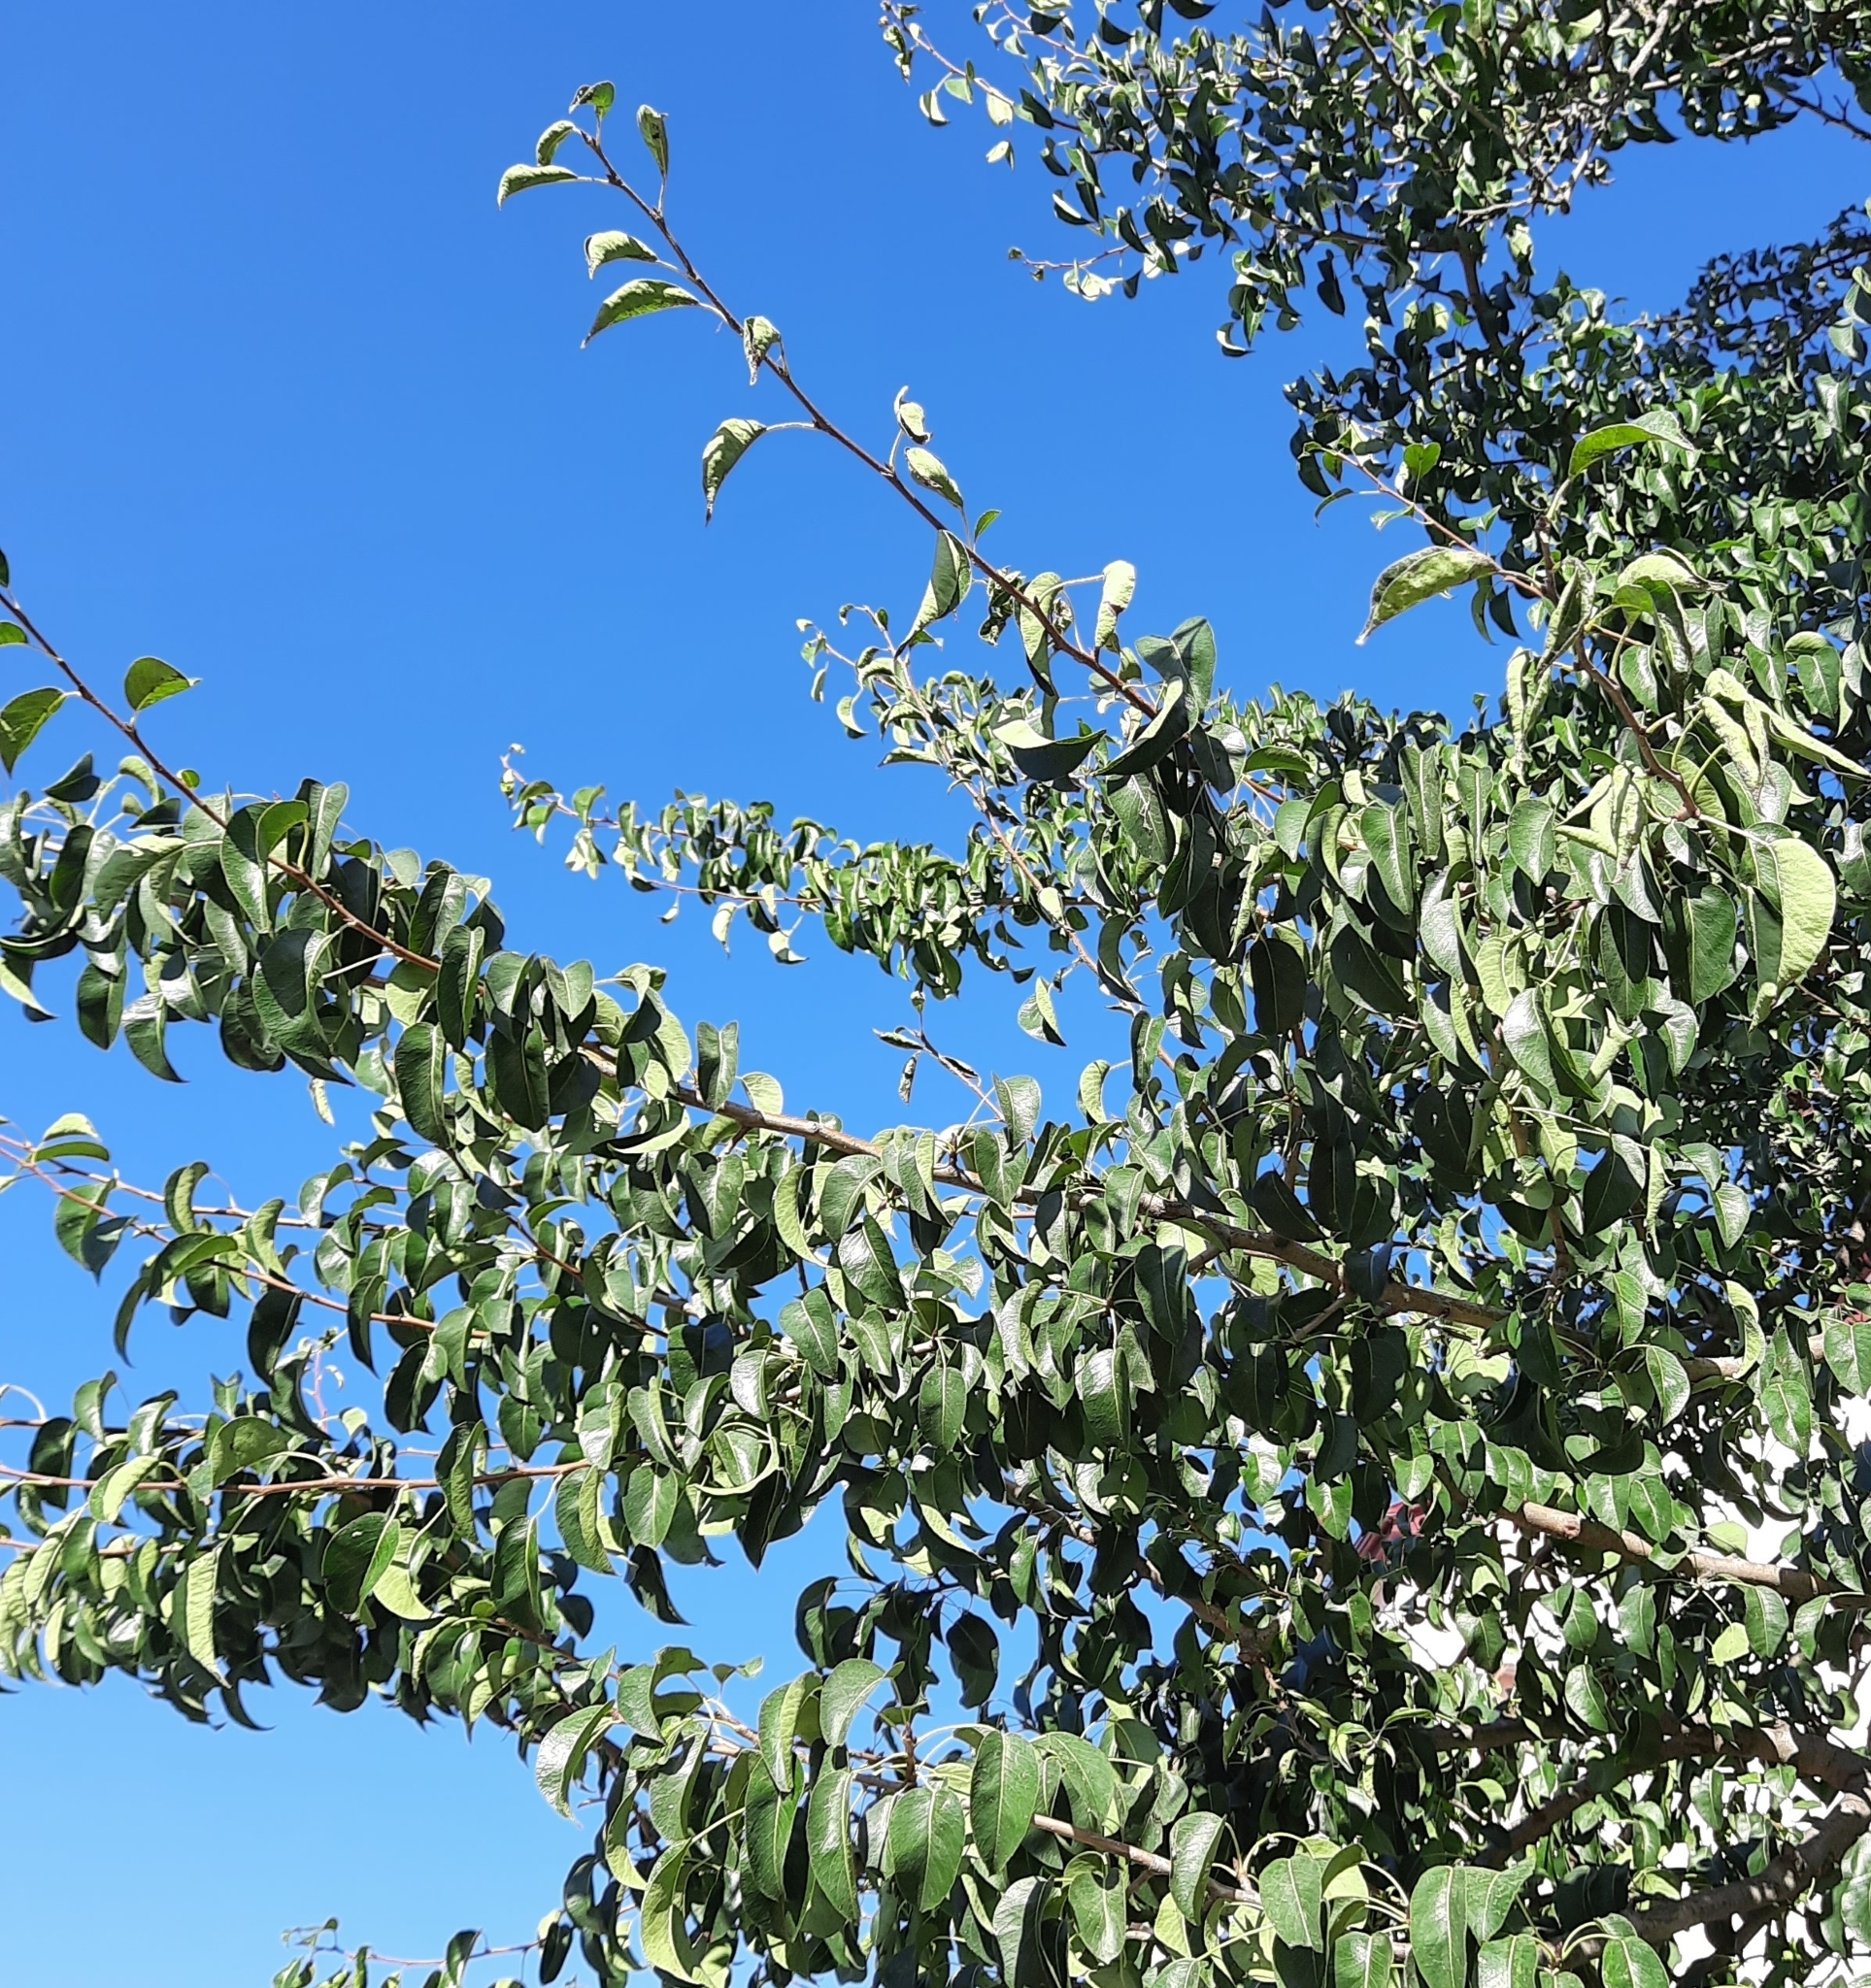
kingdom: Plantae
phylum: Tracheophyta
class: Magnoliopsida
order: Rosales
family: Rosaceae
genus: Pyrus
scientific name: Pyrus communis
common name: Pear
